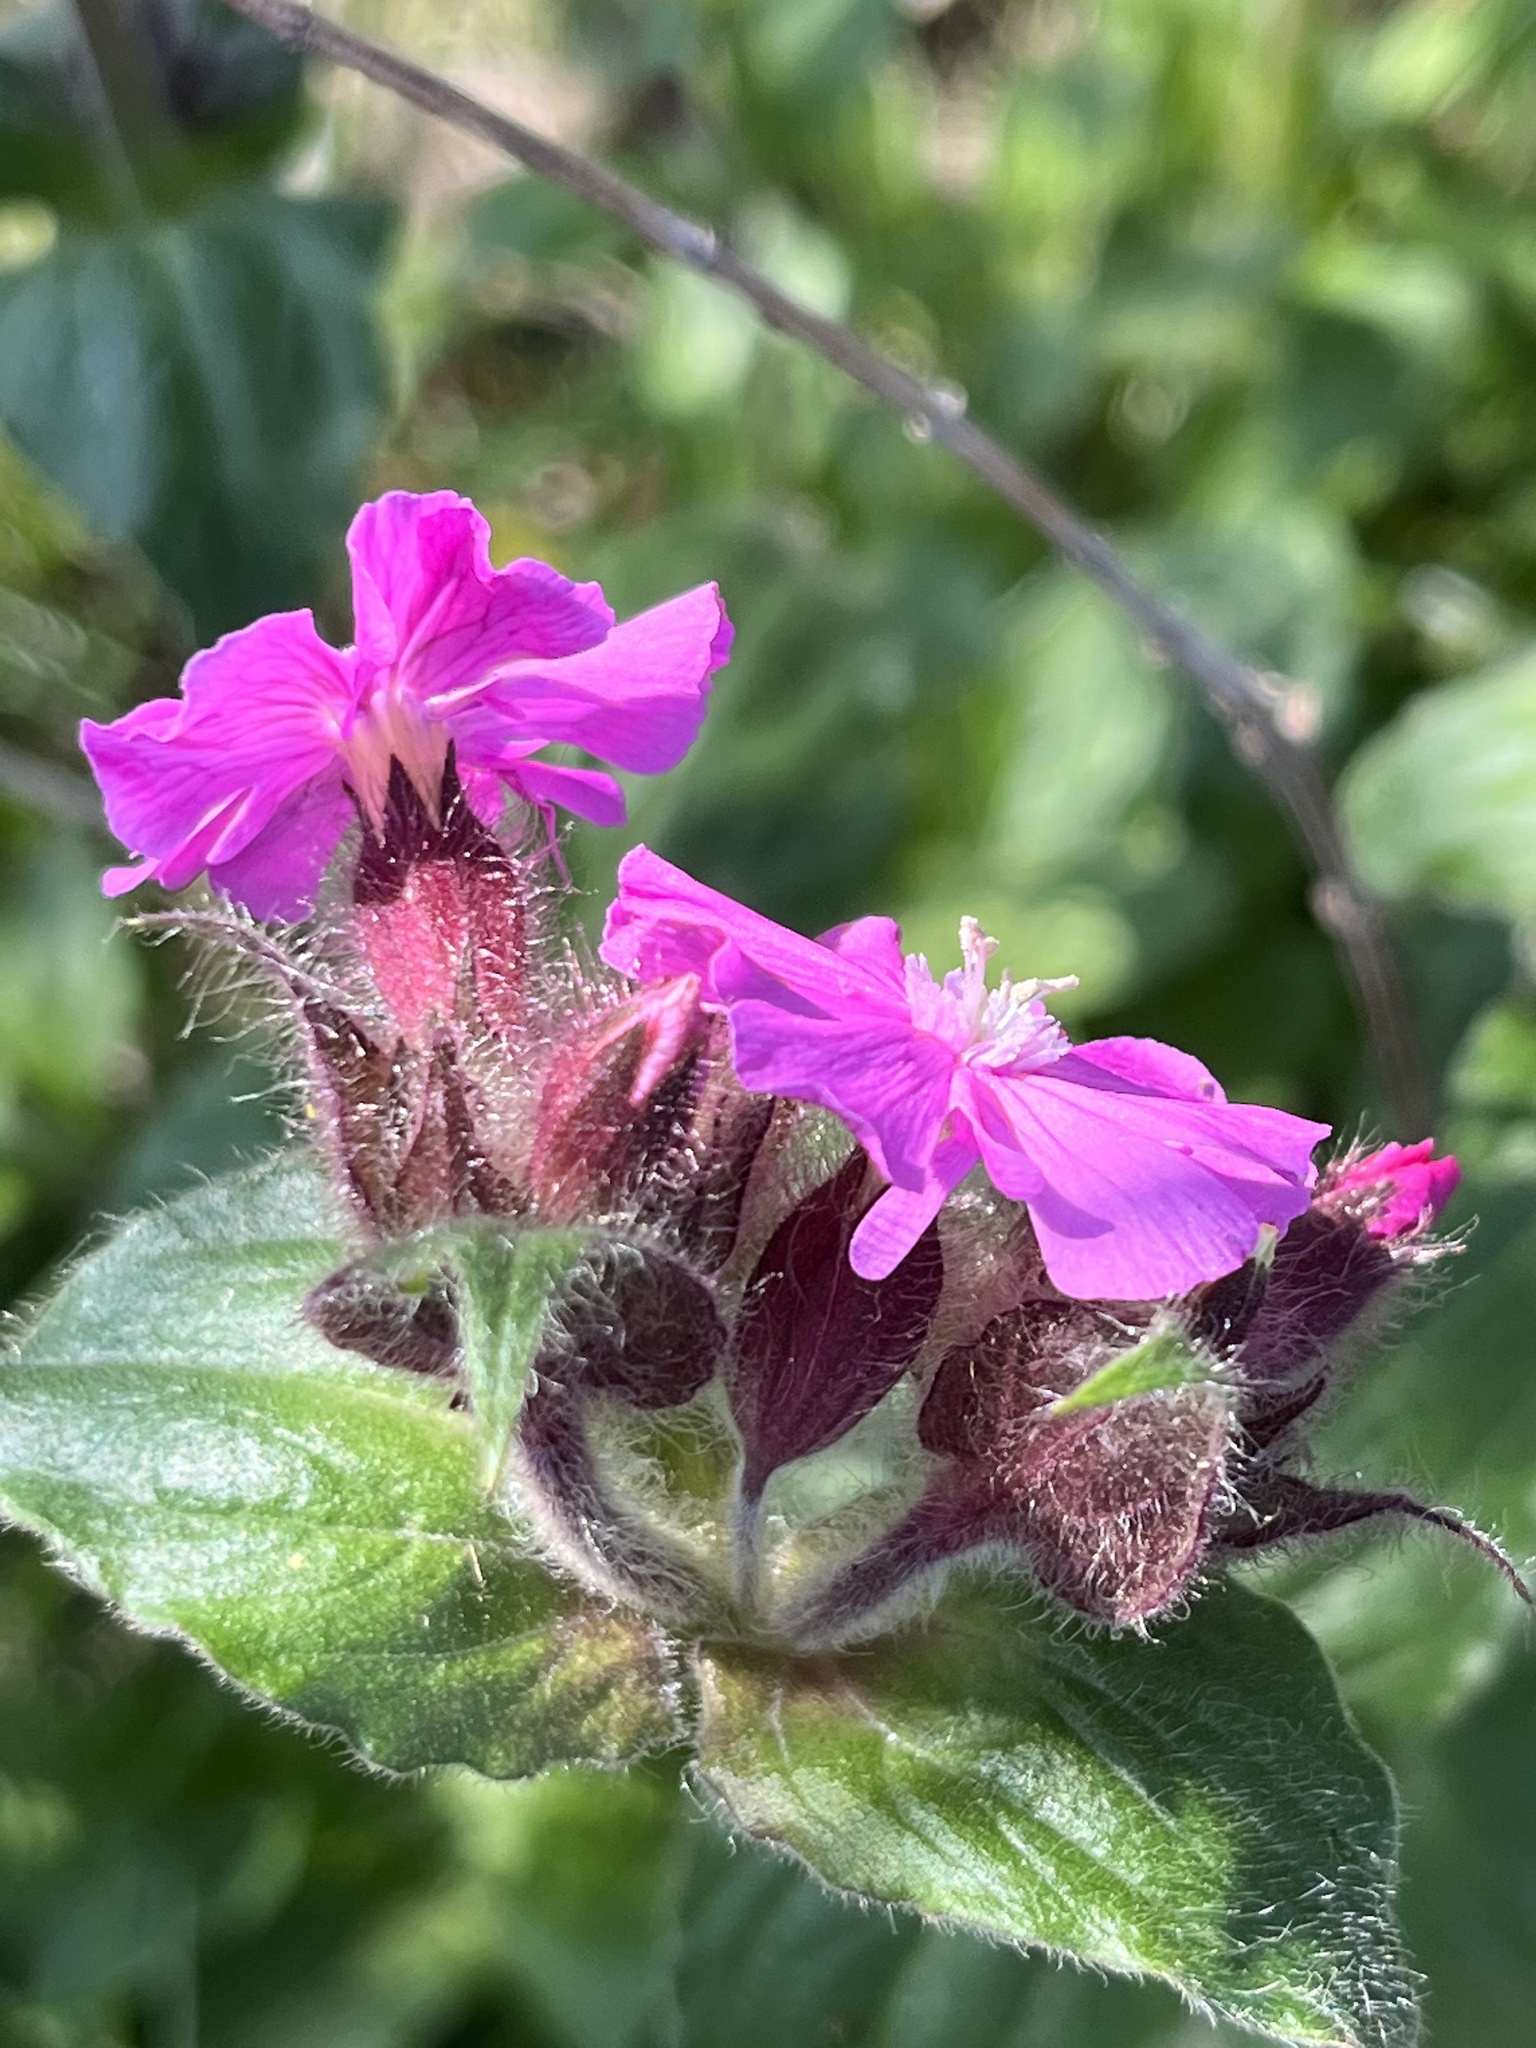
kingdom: Plantae
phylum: Tracheophyta
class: Magnoliopsida
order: Caryophyllales
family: Caryophyllaceae
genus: Silene
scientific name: Silene dioica
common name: Red campion
